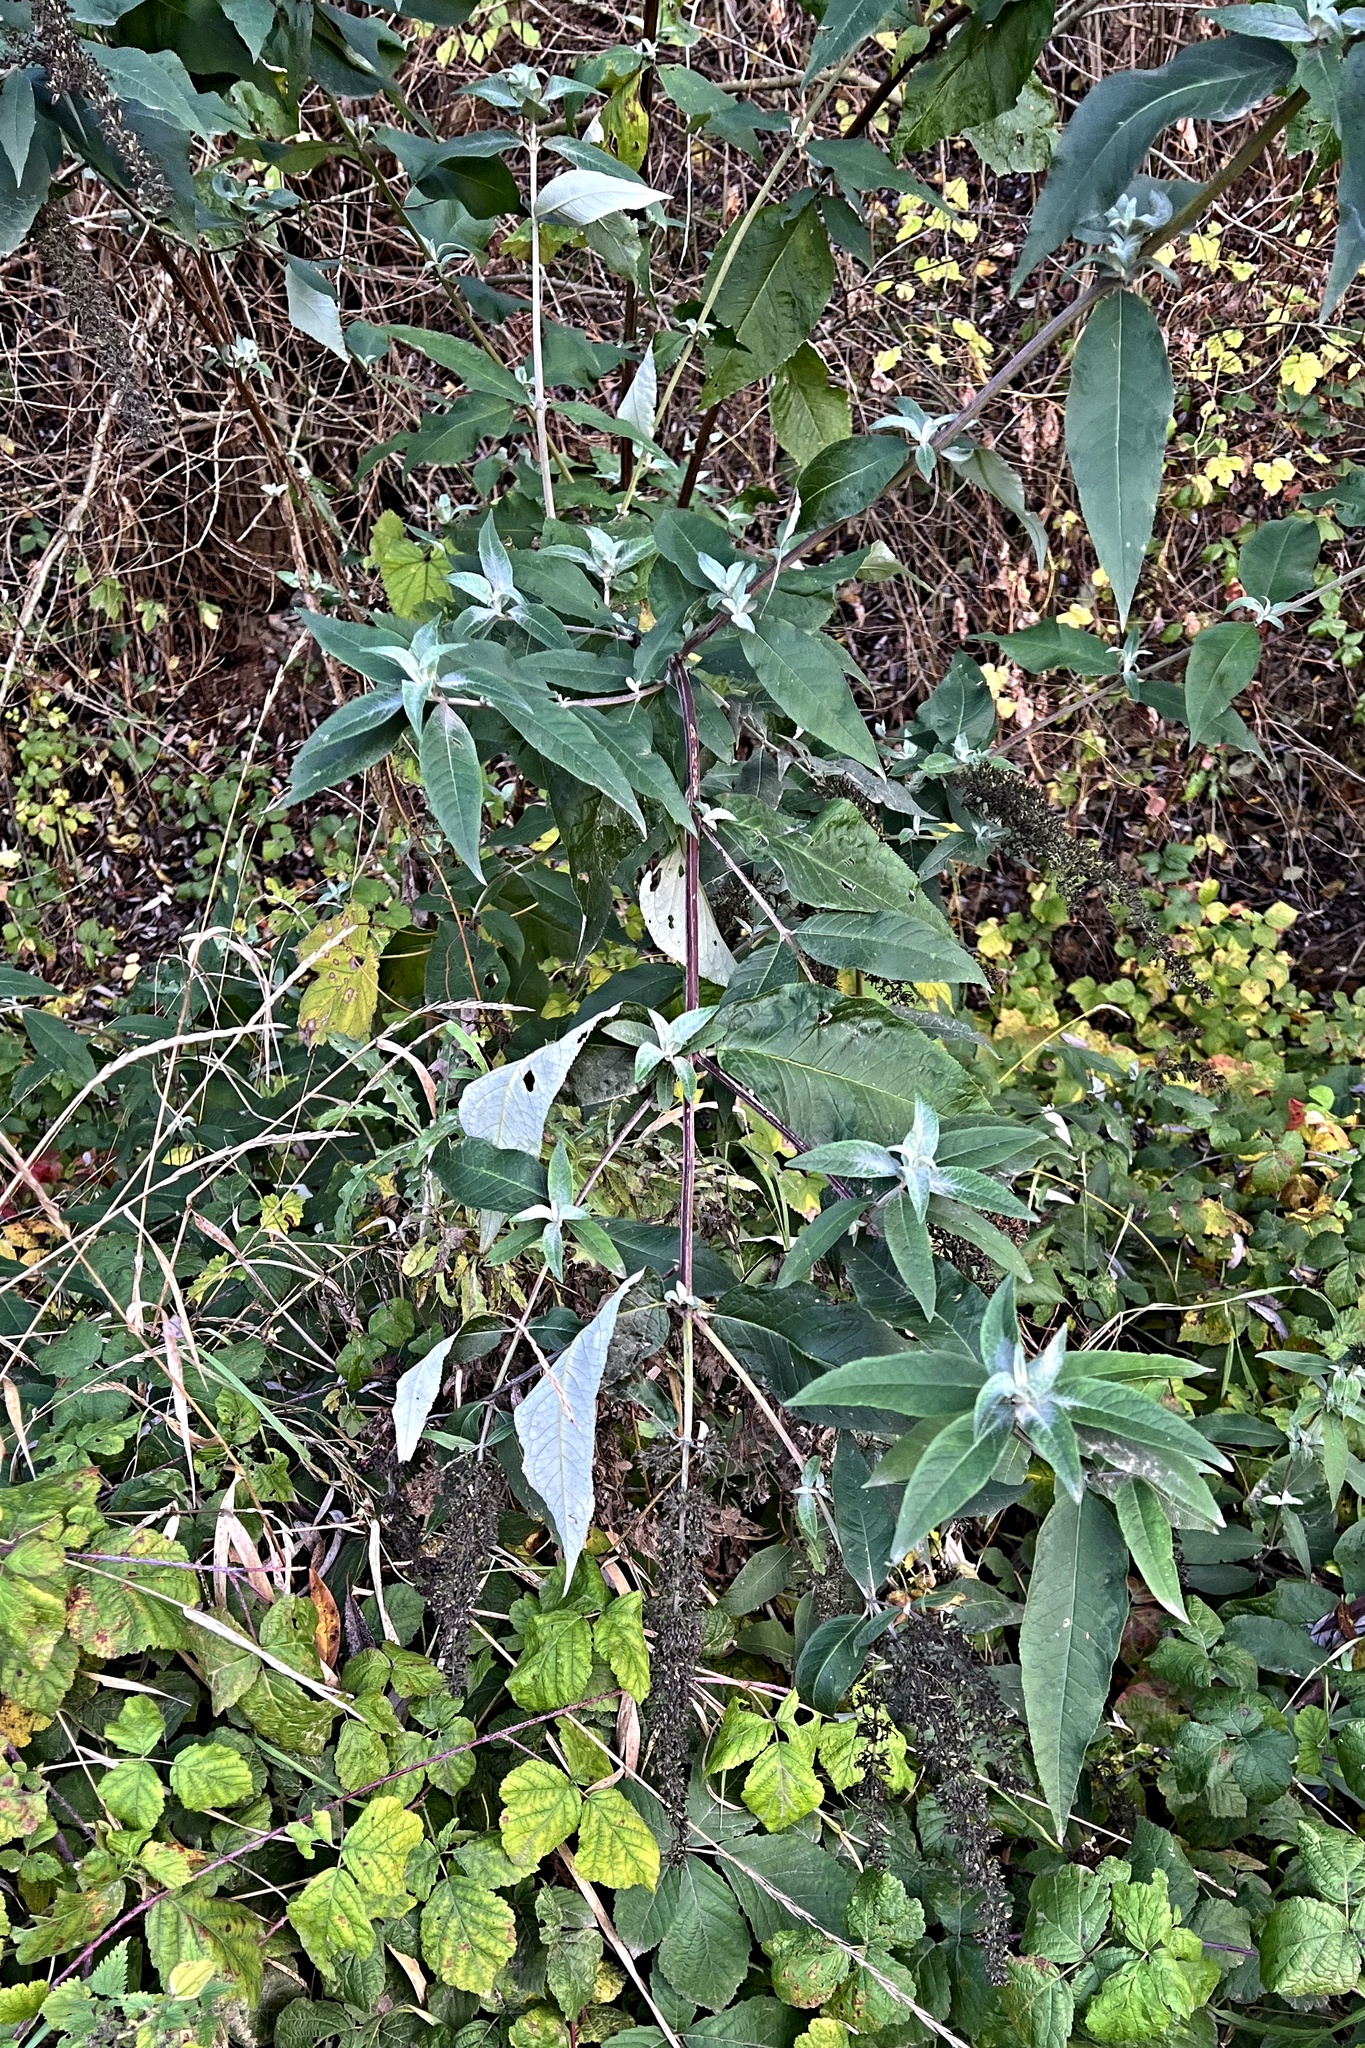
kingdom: Plantae
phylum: Tracheophyta
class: Magnoliopsida
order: Lamiales
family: Scrophulariaceae
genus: Buddleja
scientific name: Buddleja davidii
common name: Butterfly-bush
